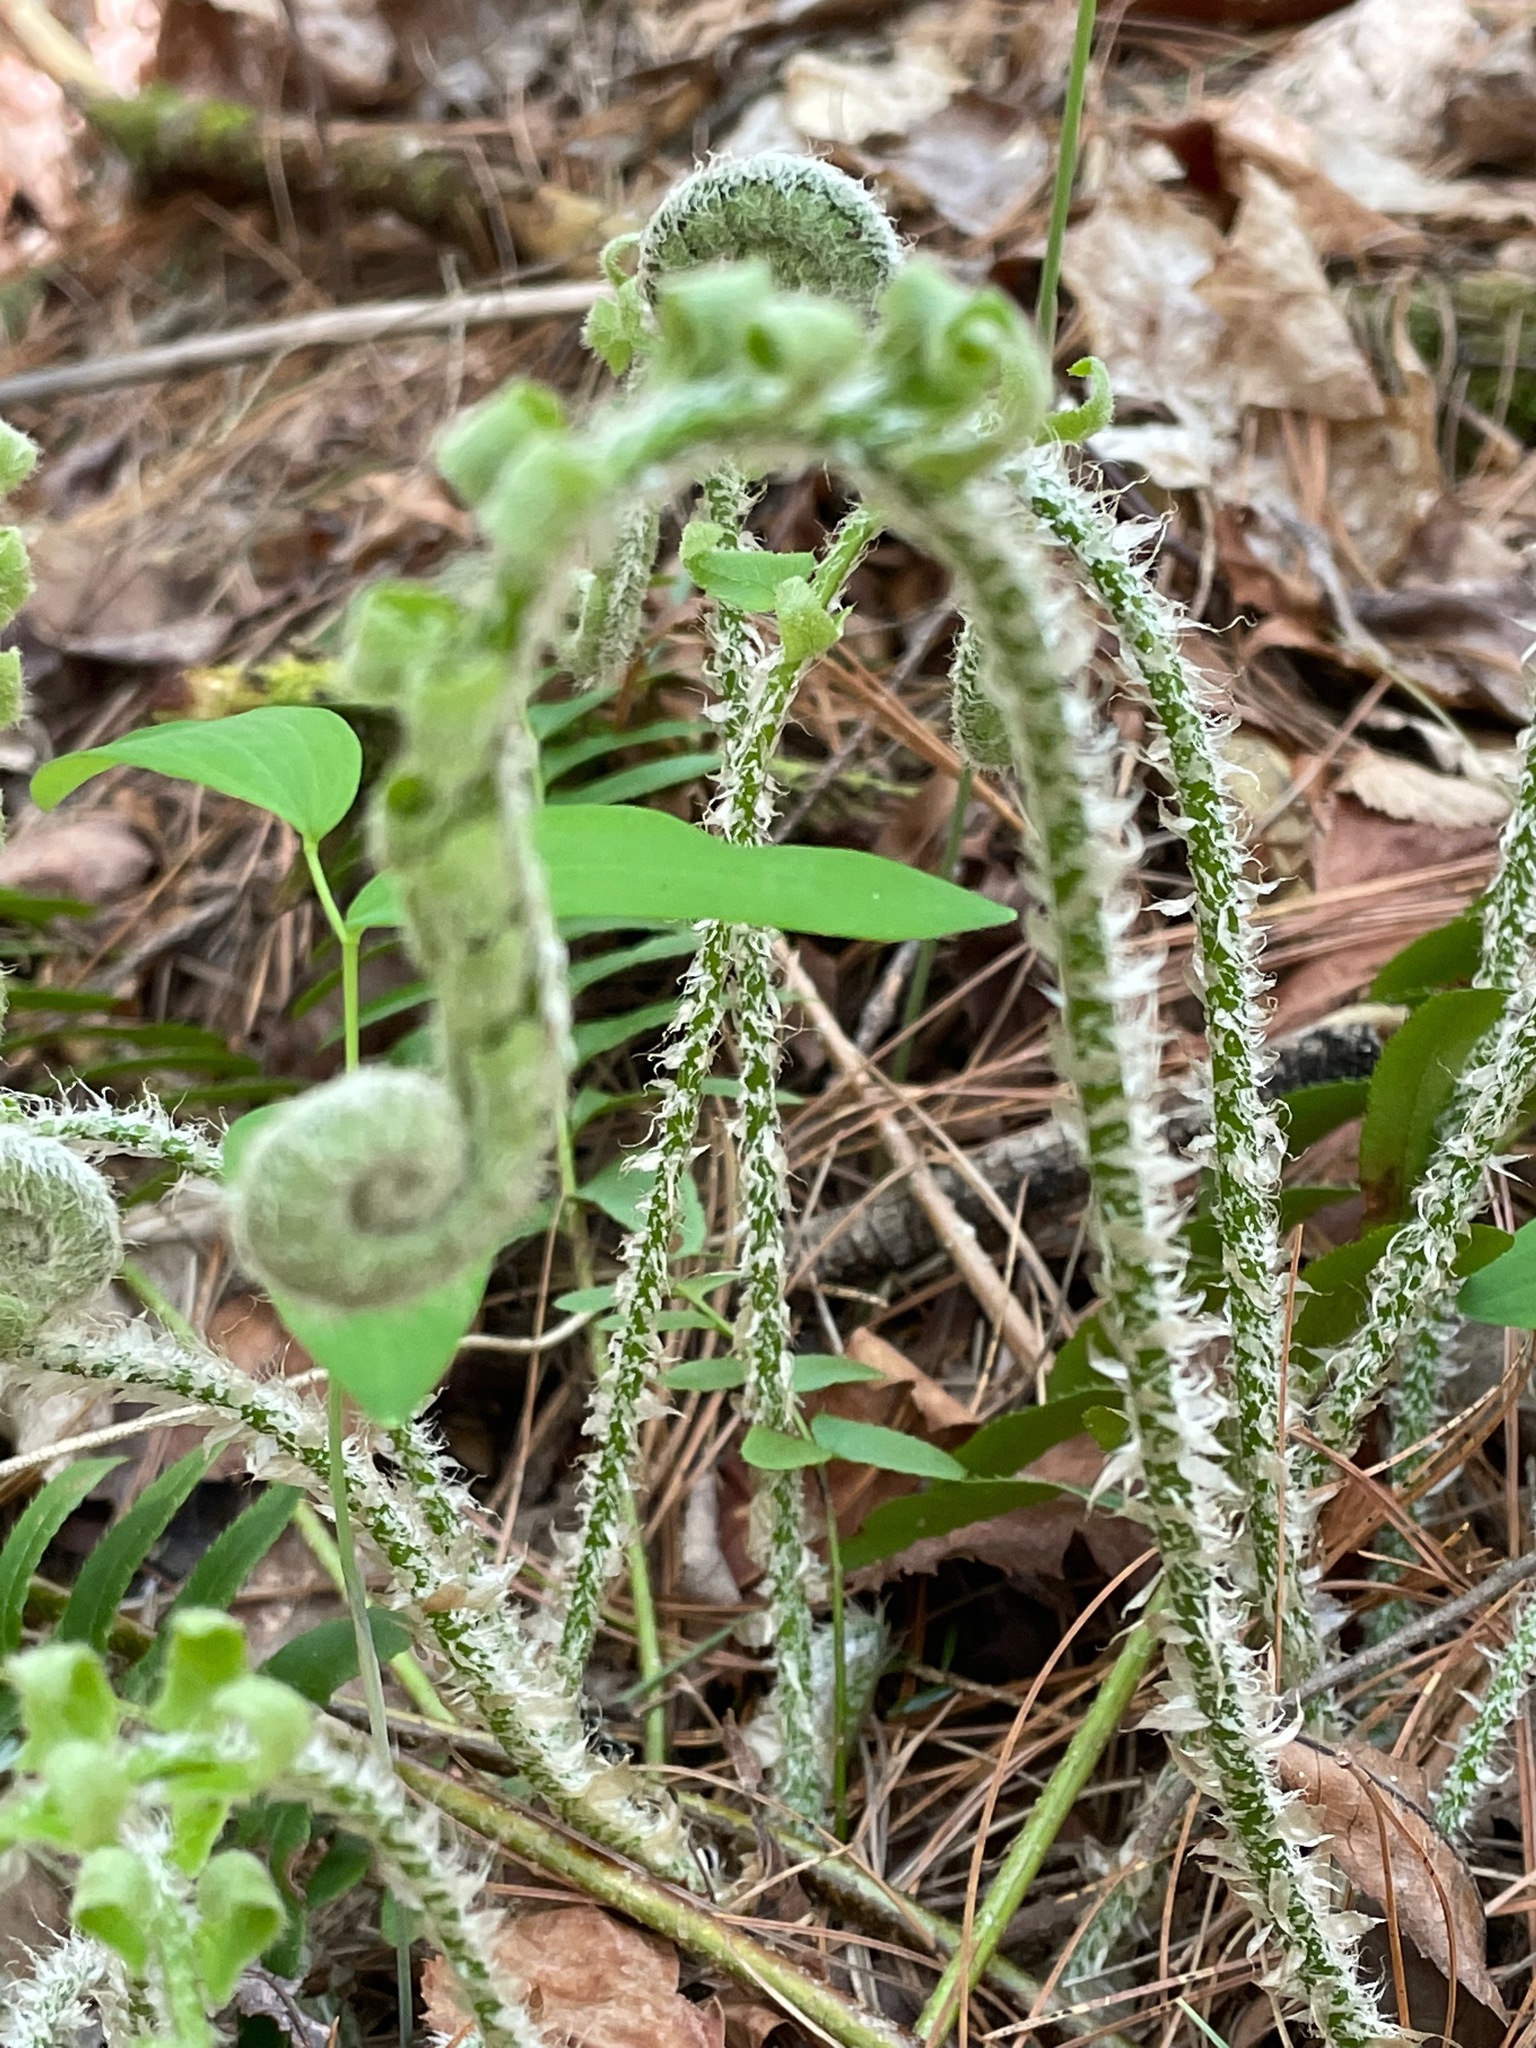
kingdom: Plantae
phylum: Tracheophyta
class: Polypodiopsida
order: Polypodiales
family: Dryopteridaceae
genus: Polystichum
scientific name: Polystichum acrostichoides
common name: Christmas fern
